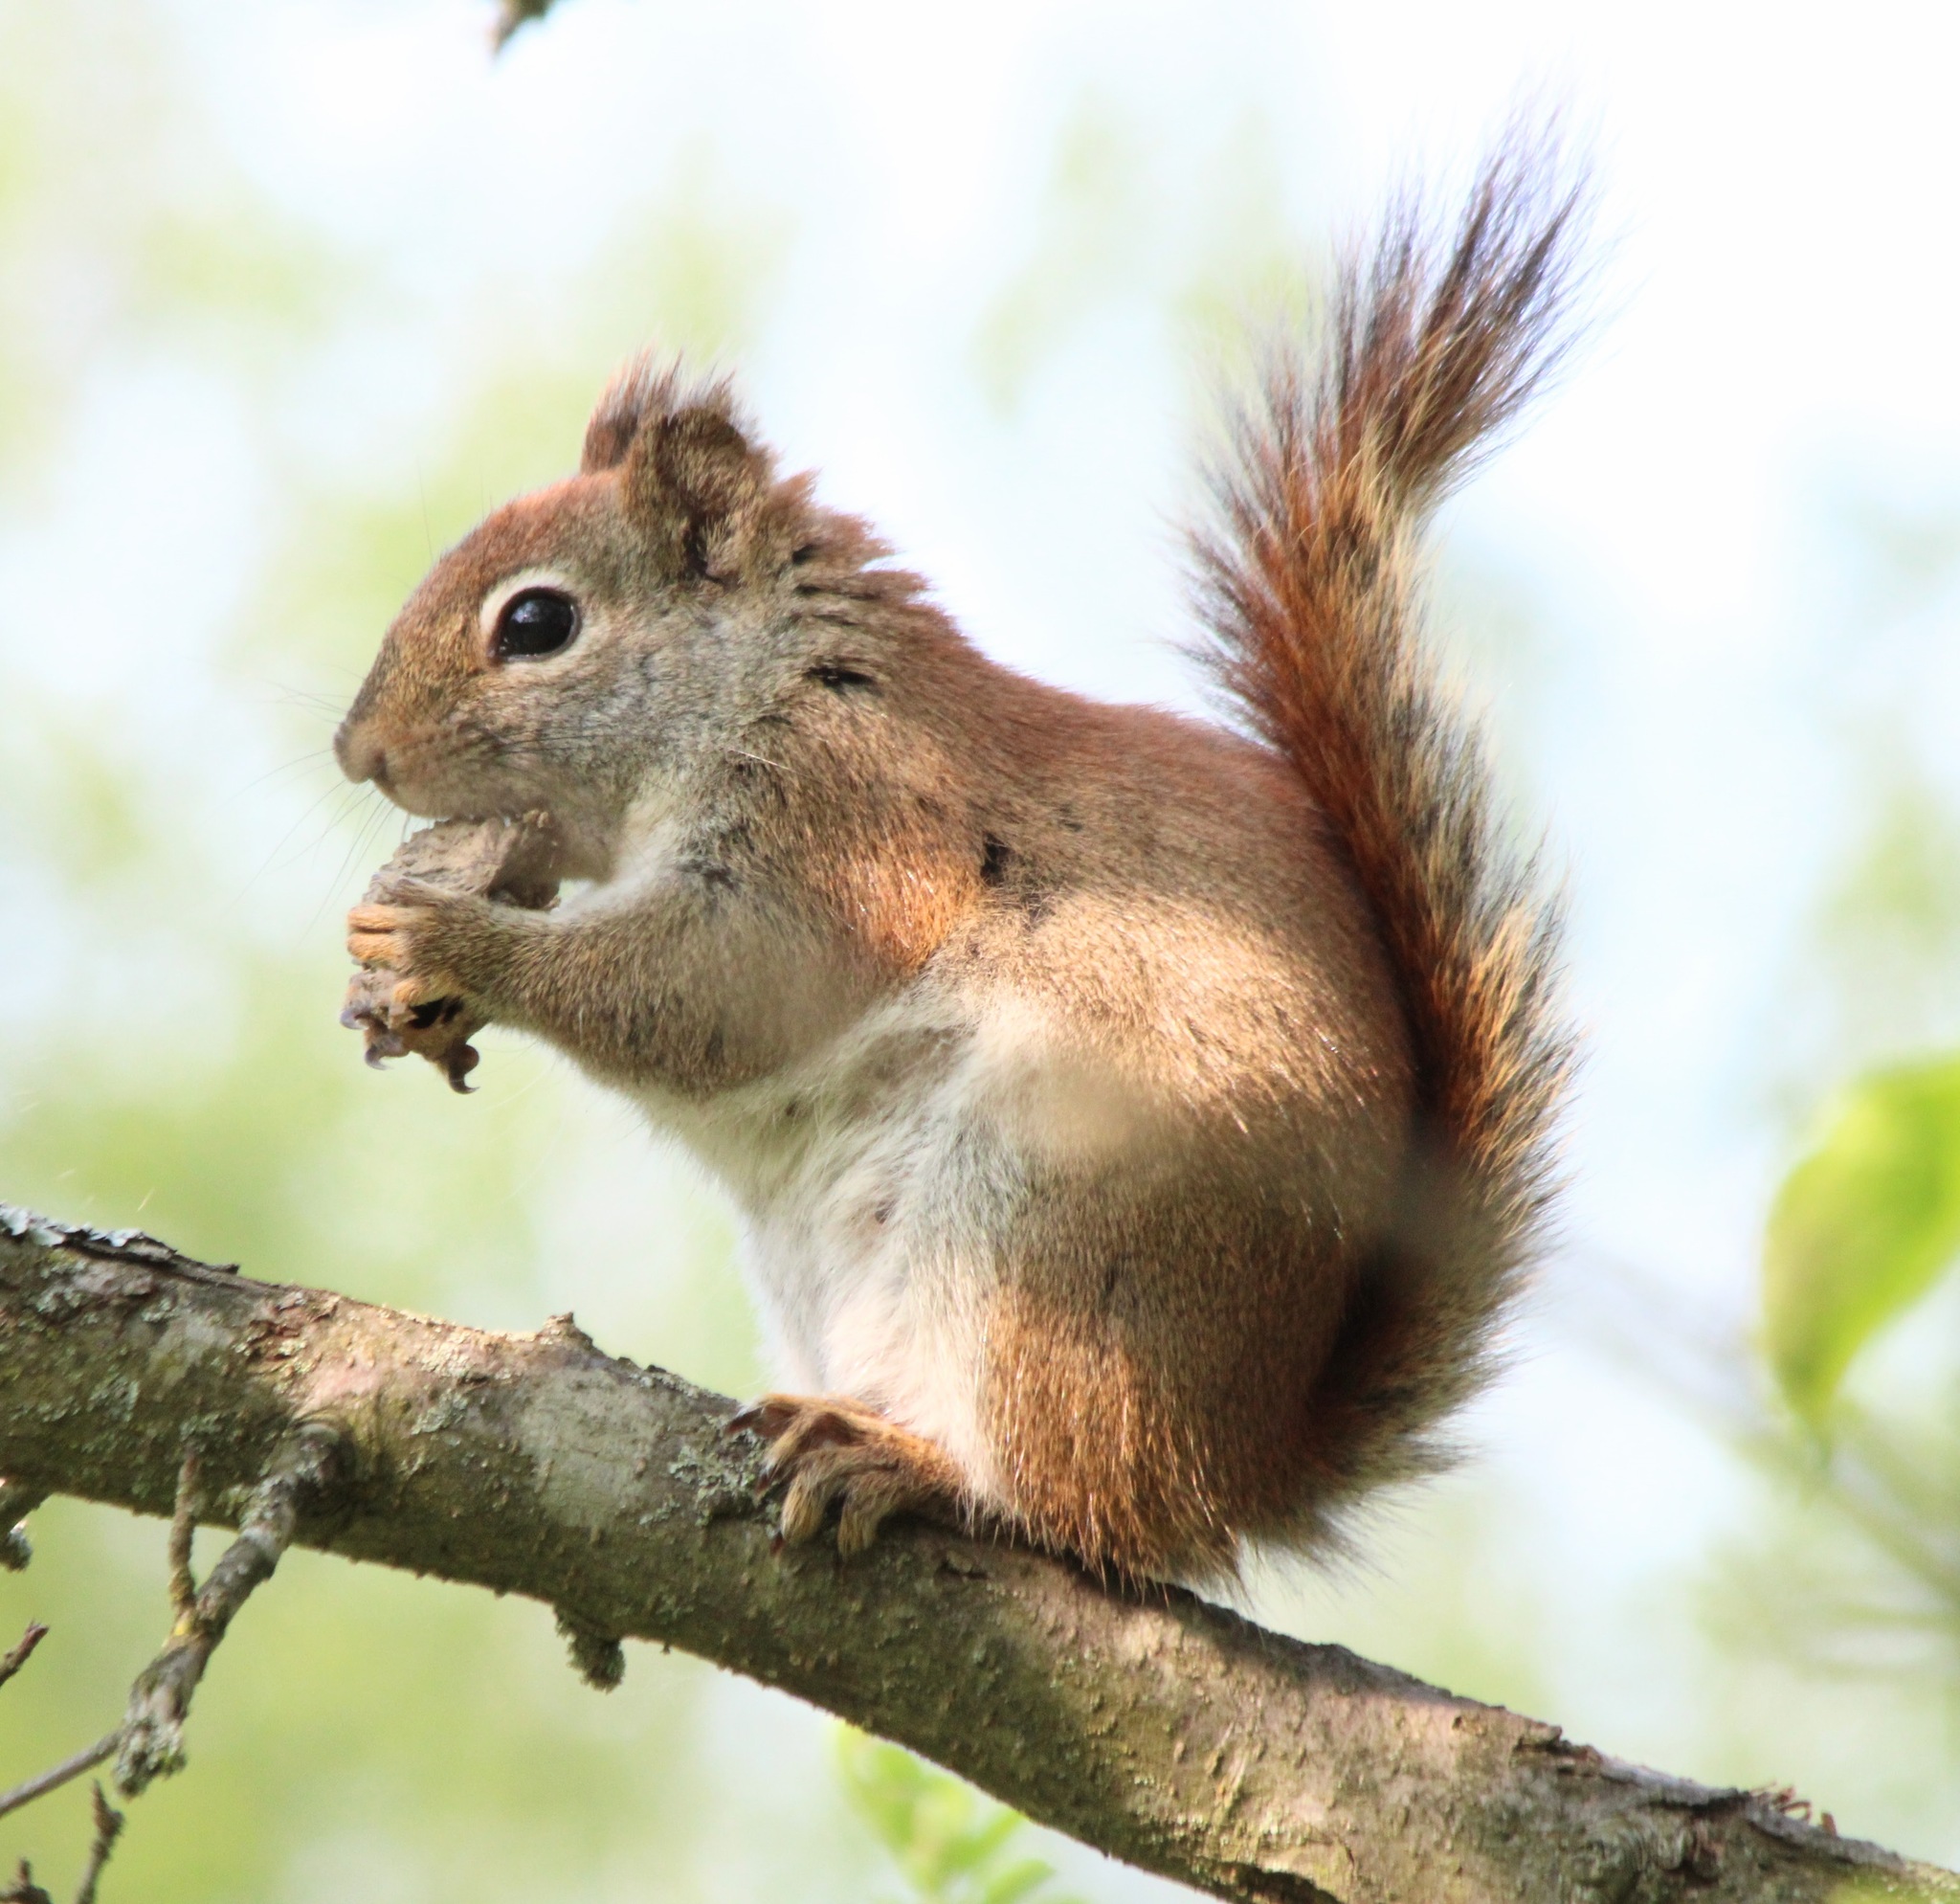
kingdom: Animalia
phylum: Chordata
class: Mammalia
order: Rodentia
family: Sciuridae
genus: Tamiasciurus
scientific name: Tamiasciurus hudsonicus
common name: Red squirrel
